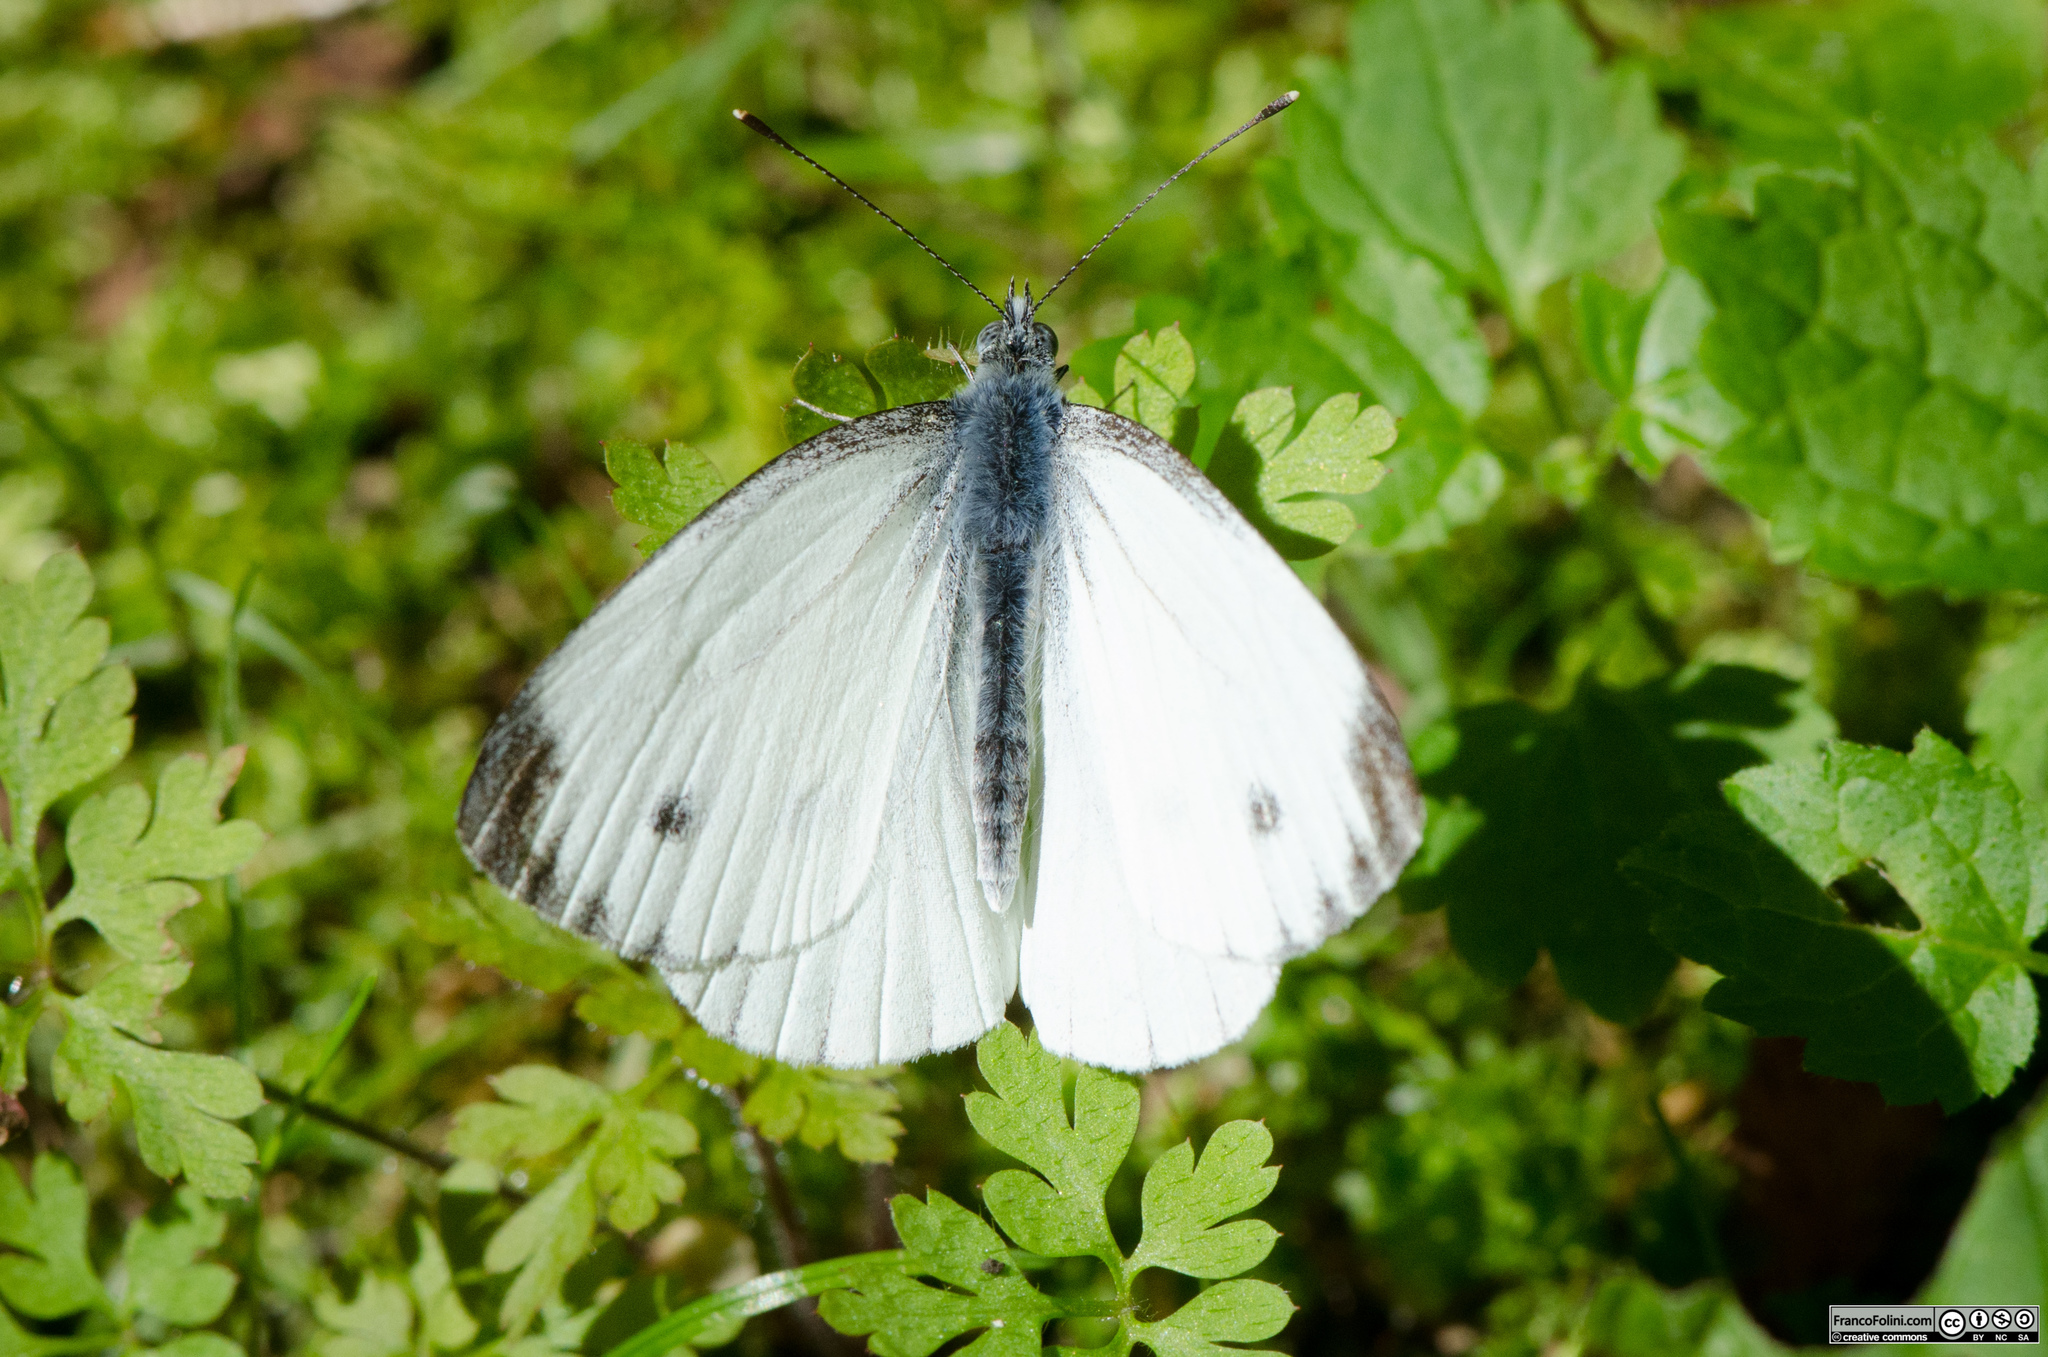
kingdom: Animalia
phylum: Arthropoda
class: Insecta
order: Lepidoptera
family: Pieridae
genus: Pieris
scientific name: Pieris napi
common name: Green-veined white
